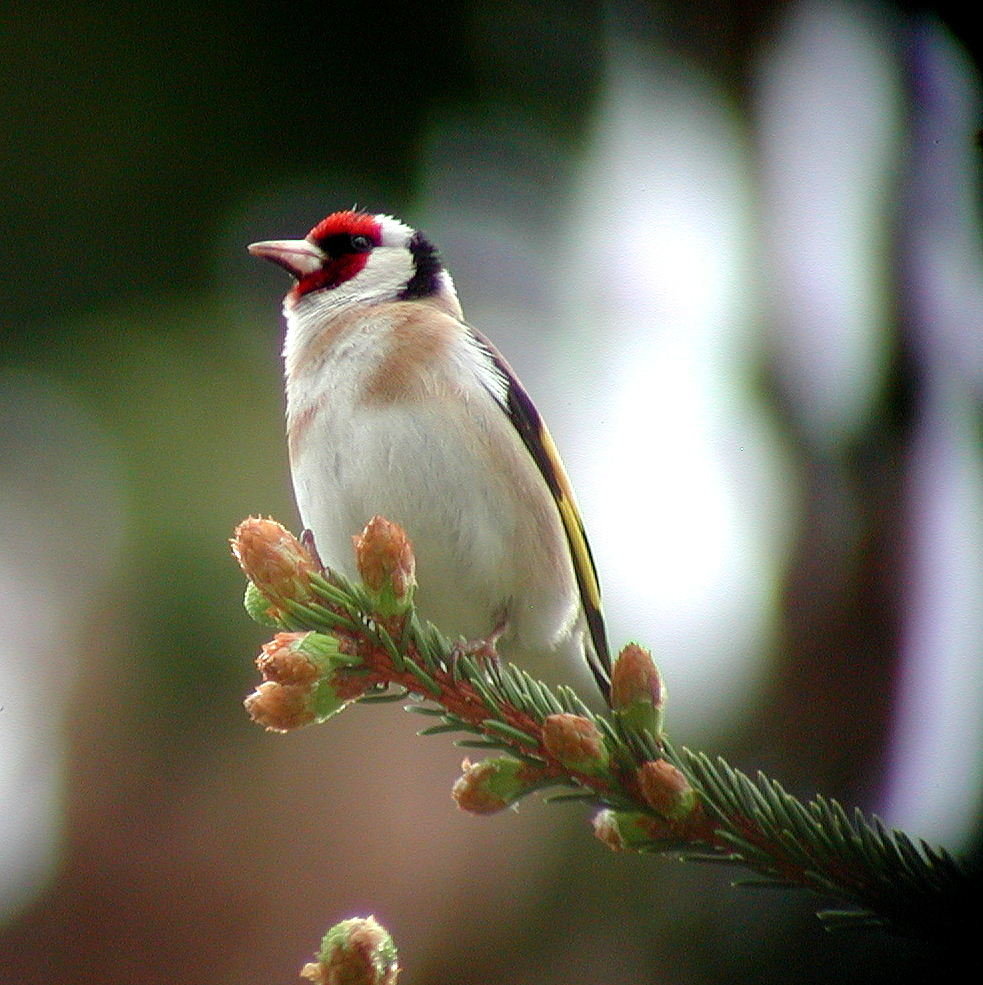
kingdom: Animalia
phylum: Chordata
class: Aves
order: Passeriformes
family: Fringillidae
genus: Carduelis
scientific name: Carduelis carduelis
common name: European goldfinch
